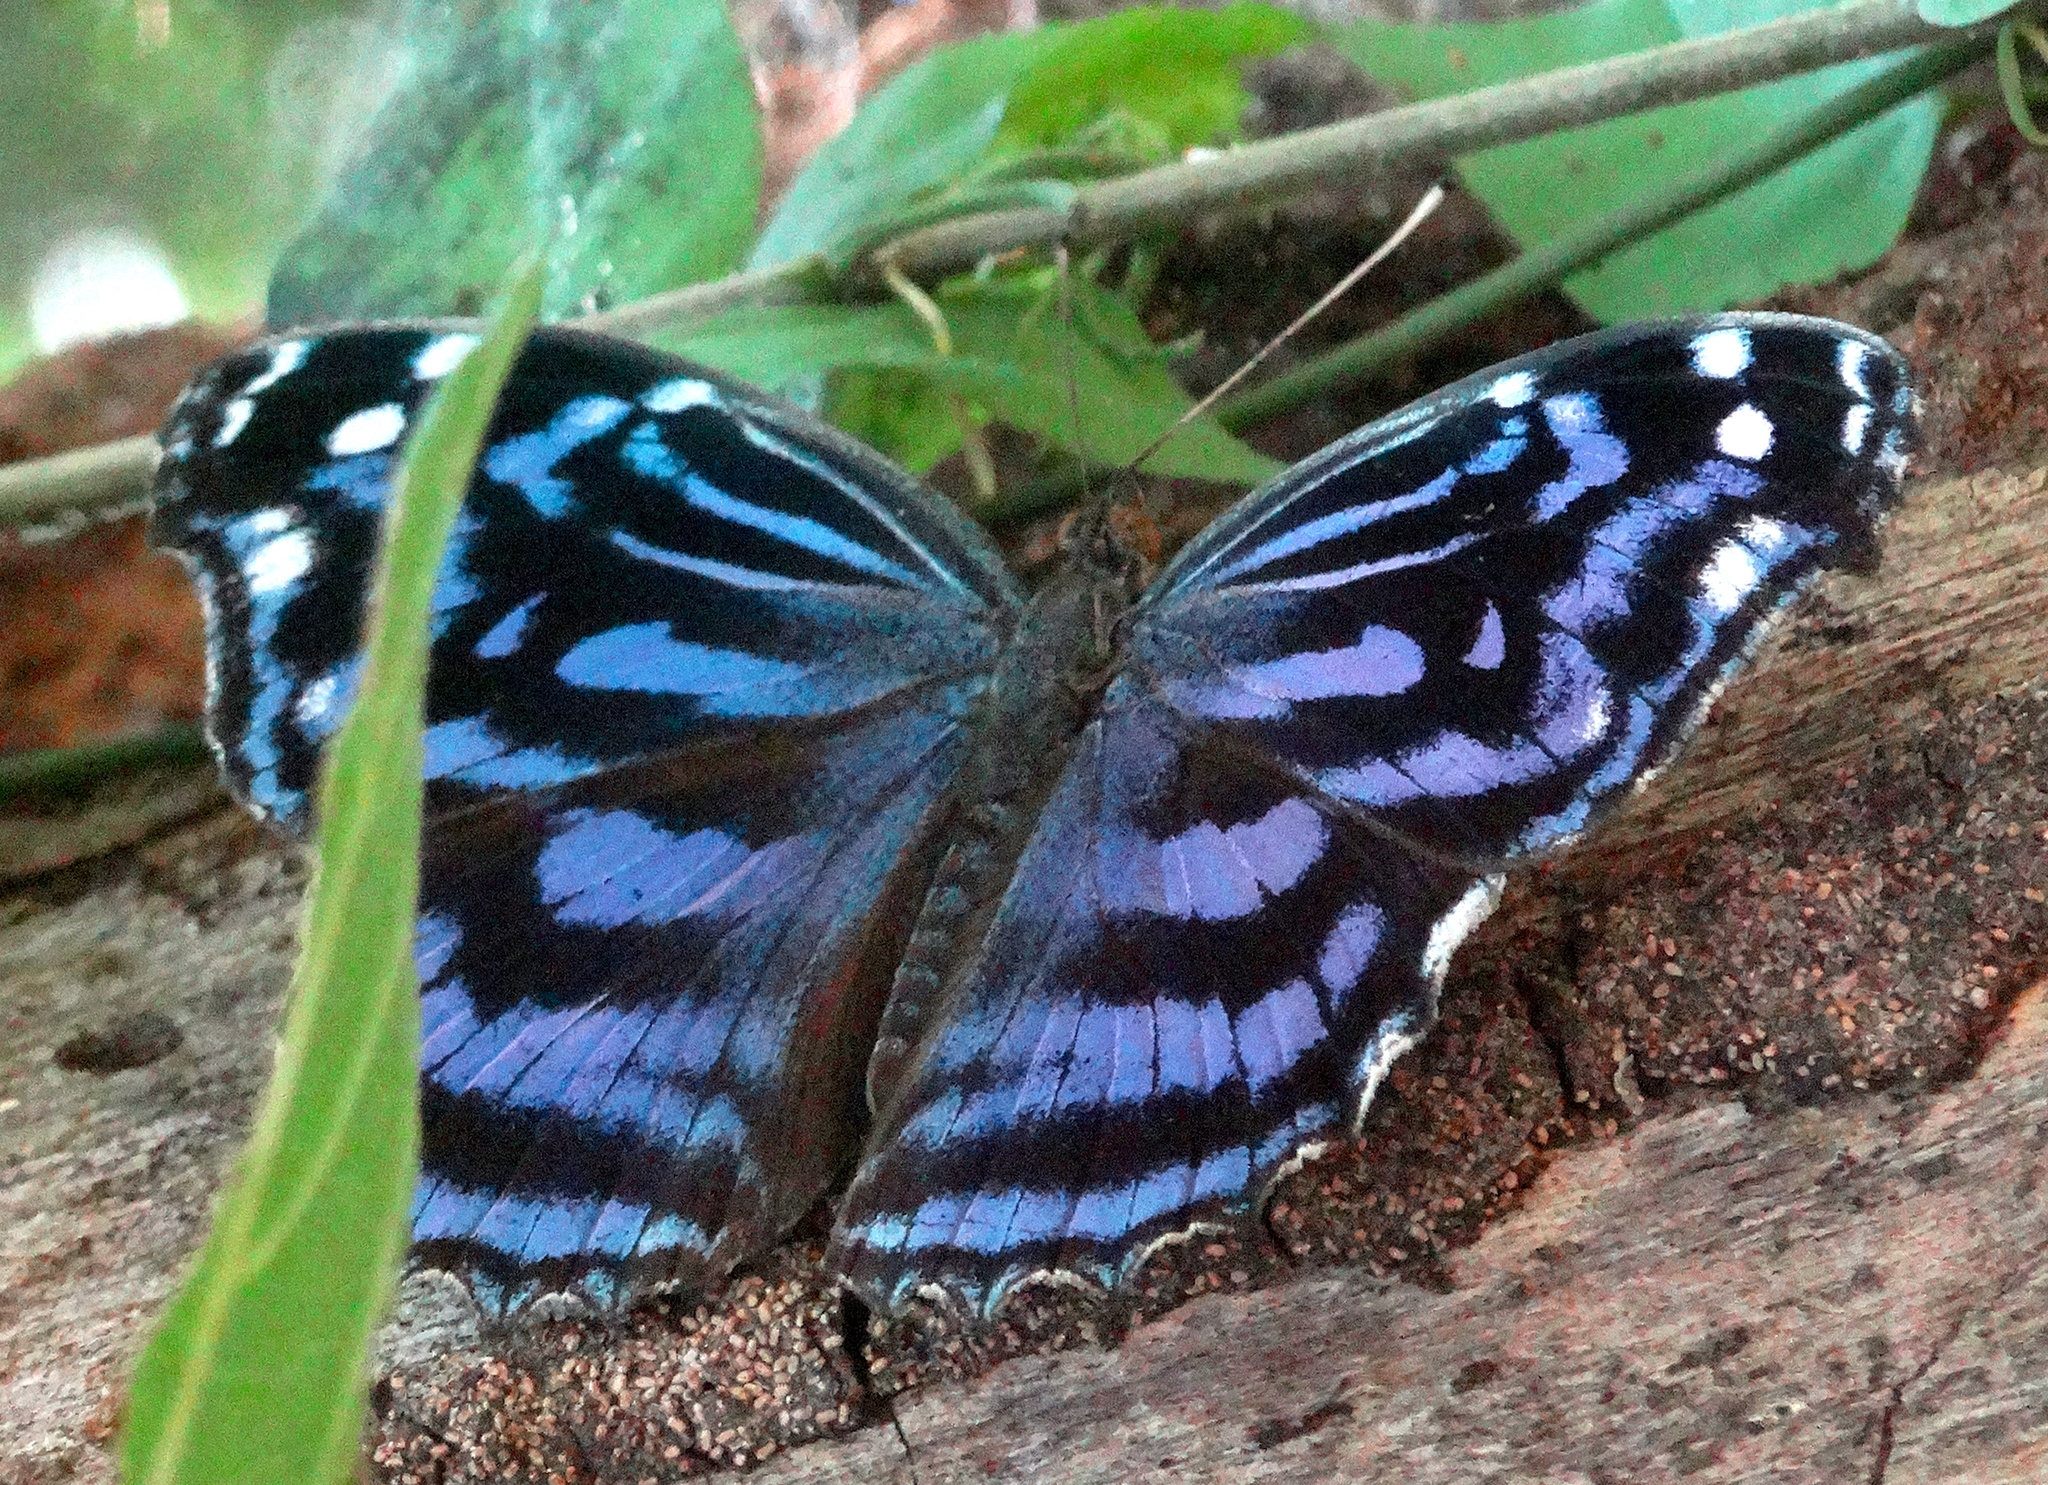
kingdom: Animalia
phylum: Arthropoda
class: Insecta
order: Lepidoptera
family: Nymphalidae
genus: Myscelia
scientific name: Myscelia ethusa
